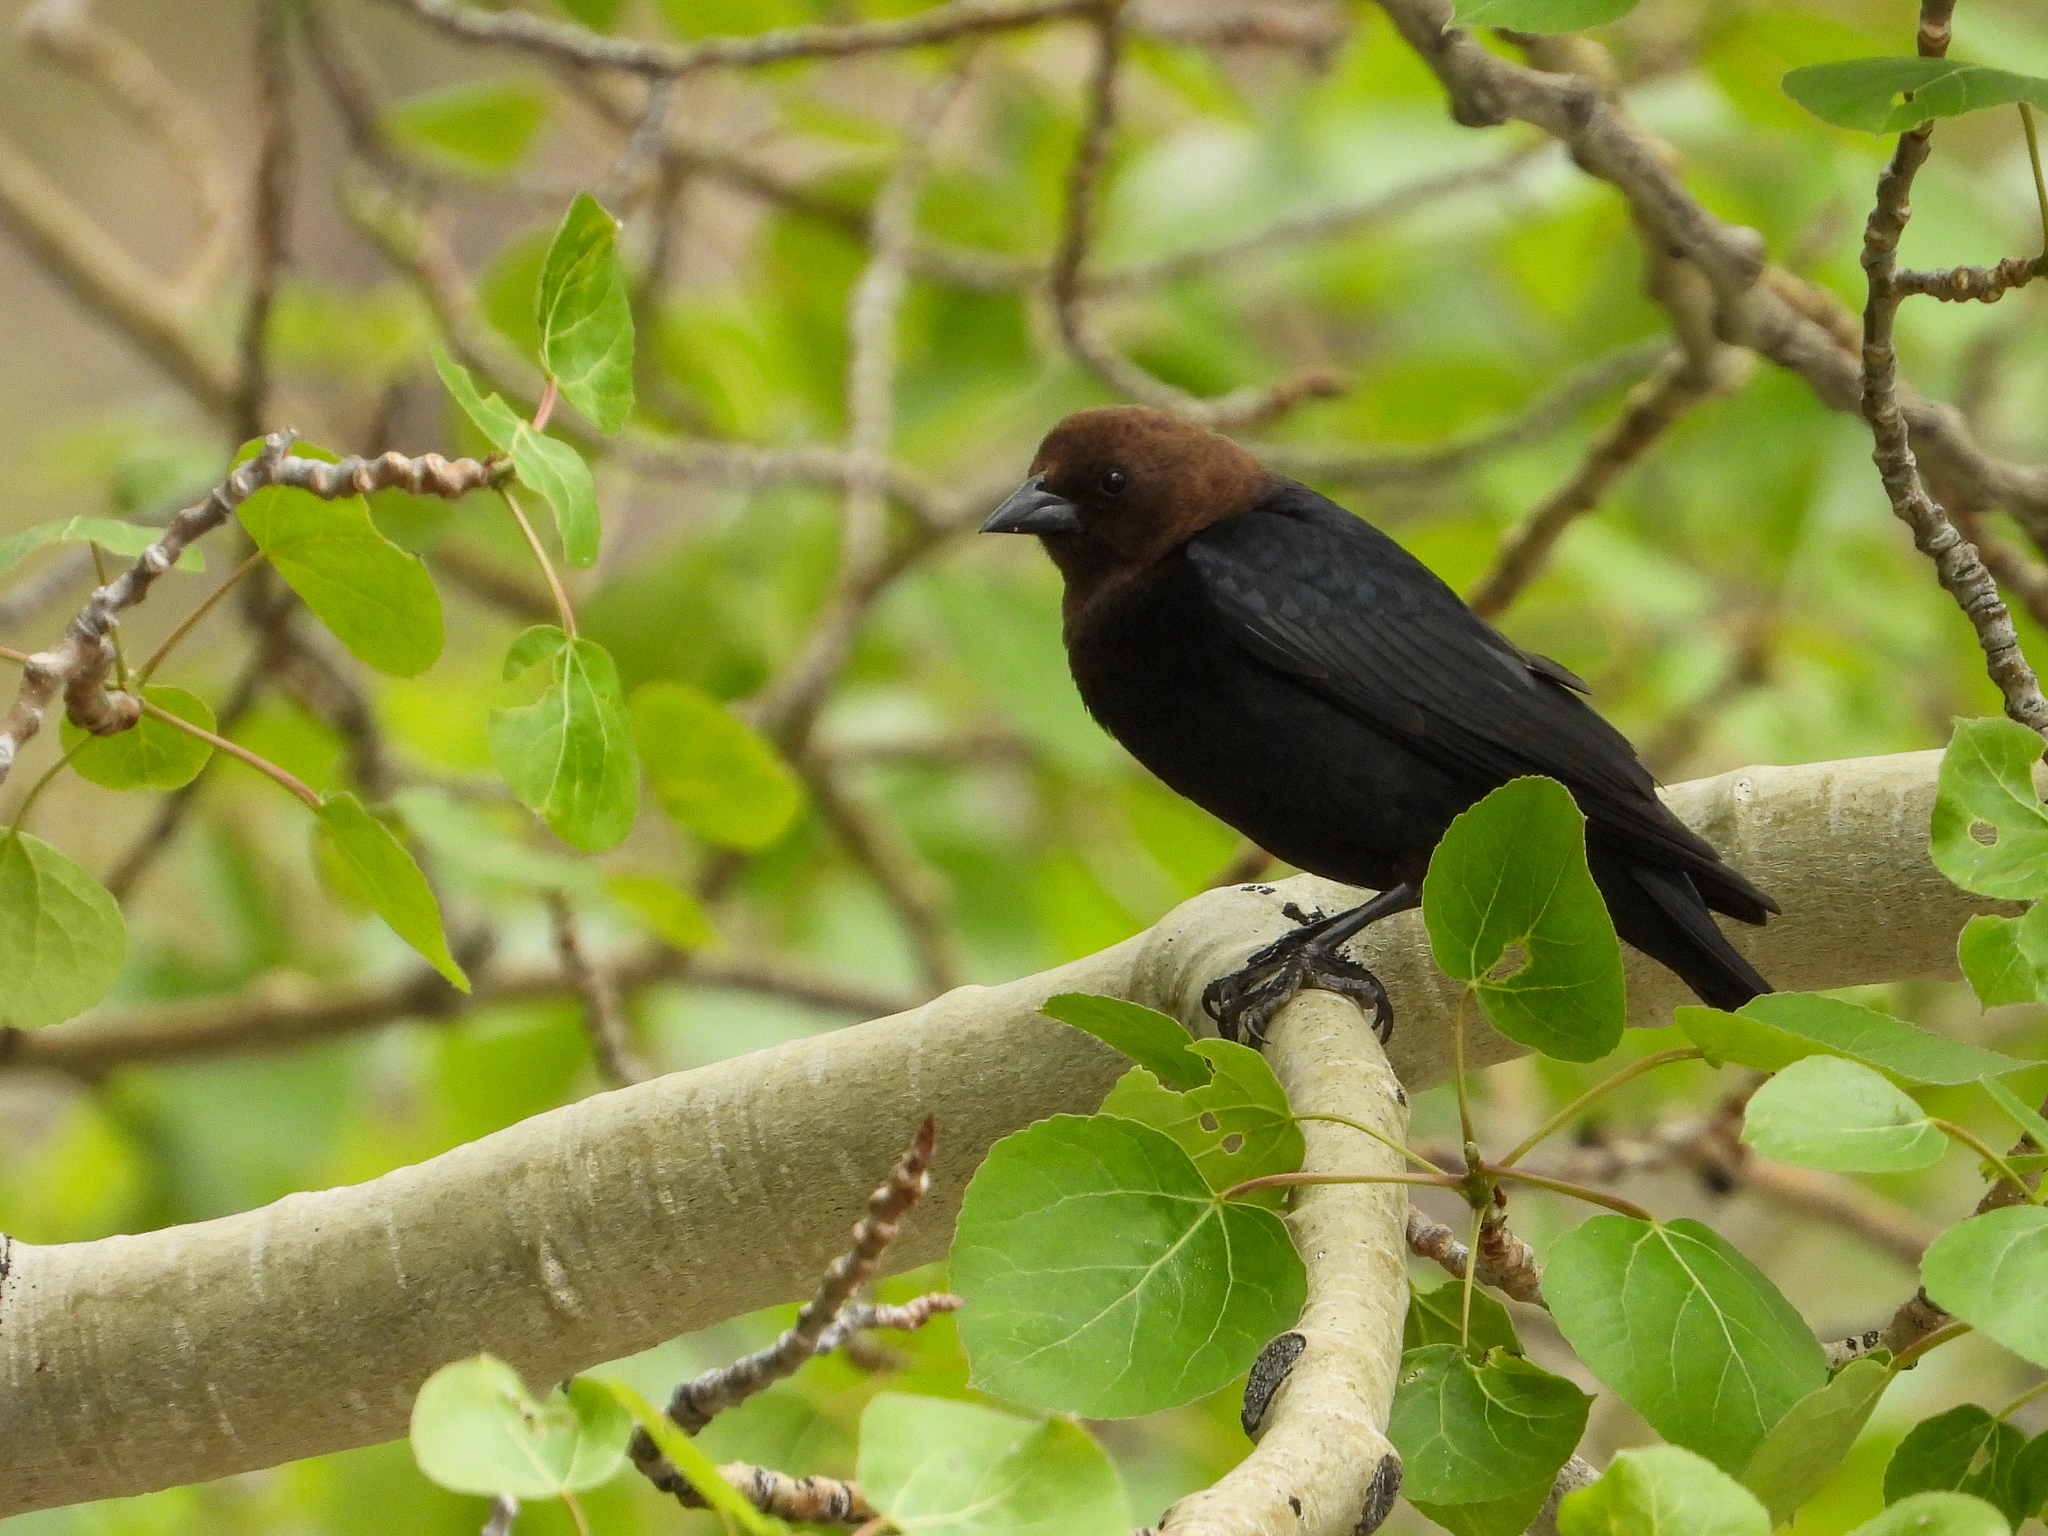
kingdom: Animalia
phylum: Chordata
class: Aves
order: Passeriformes
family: Icteridae
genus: Molothrus
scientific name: Molothrus ater
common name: Brown-headed cowbird
